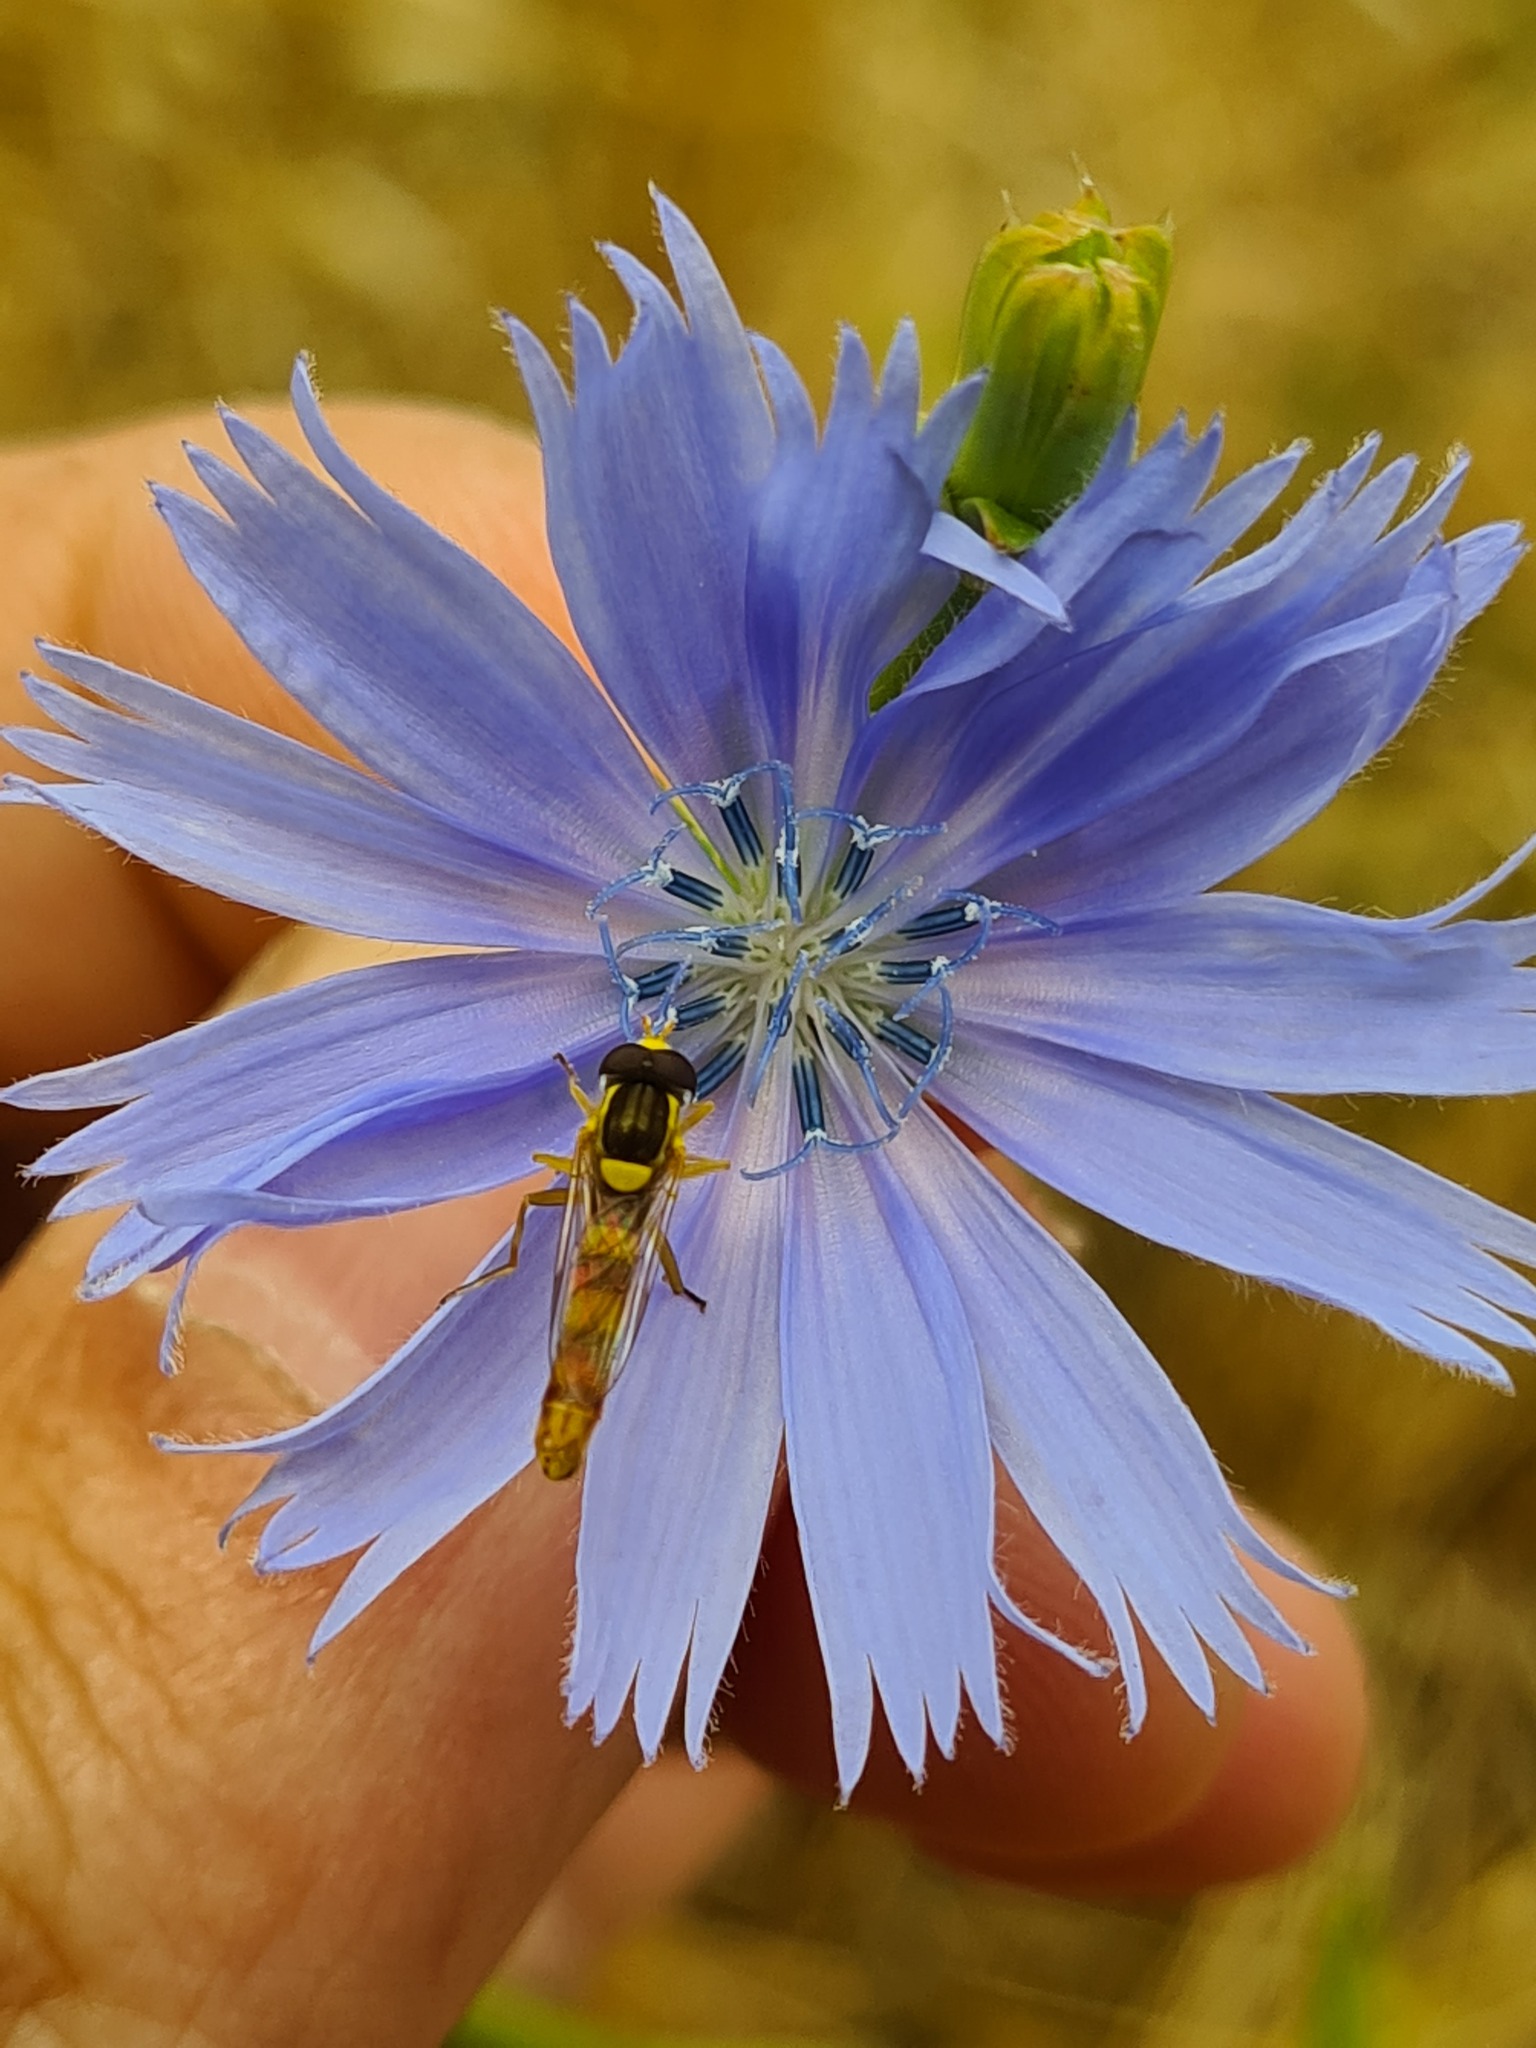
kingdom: Animalia
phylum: Arthropoda
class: Insecta
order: Diptera
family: Syrphidae
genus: Sphaerophoria
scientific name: Sphaerophoria scripta
